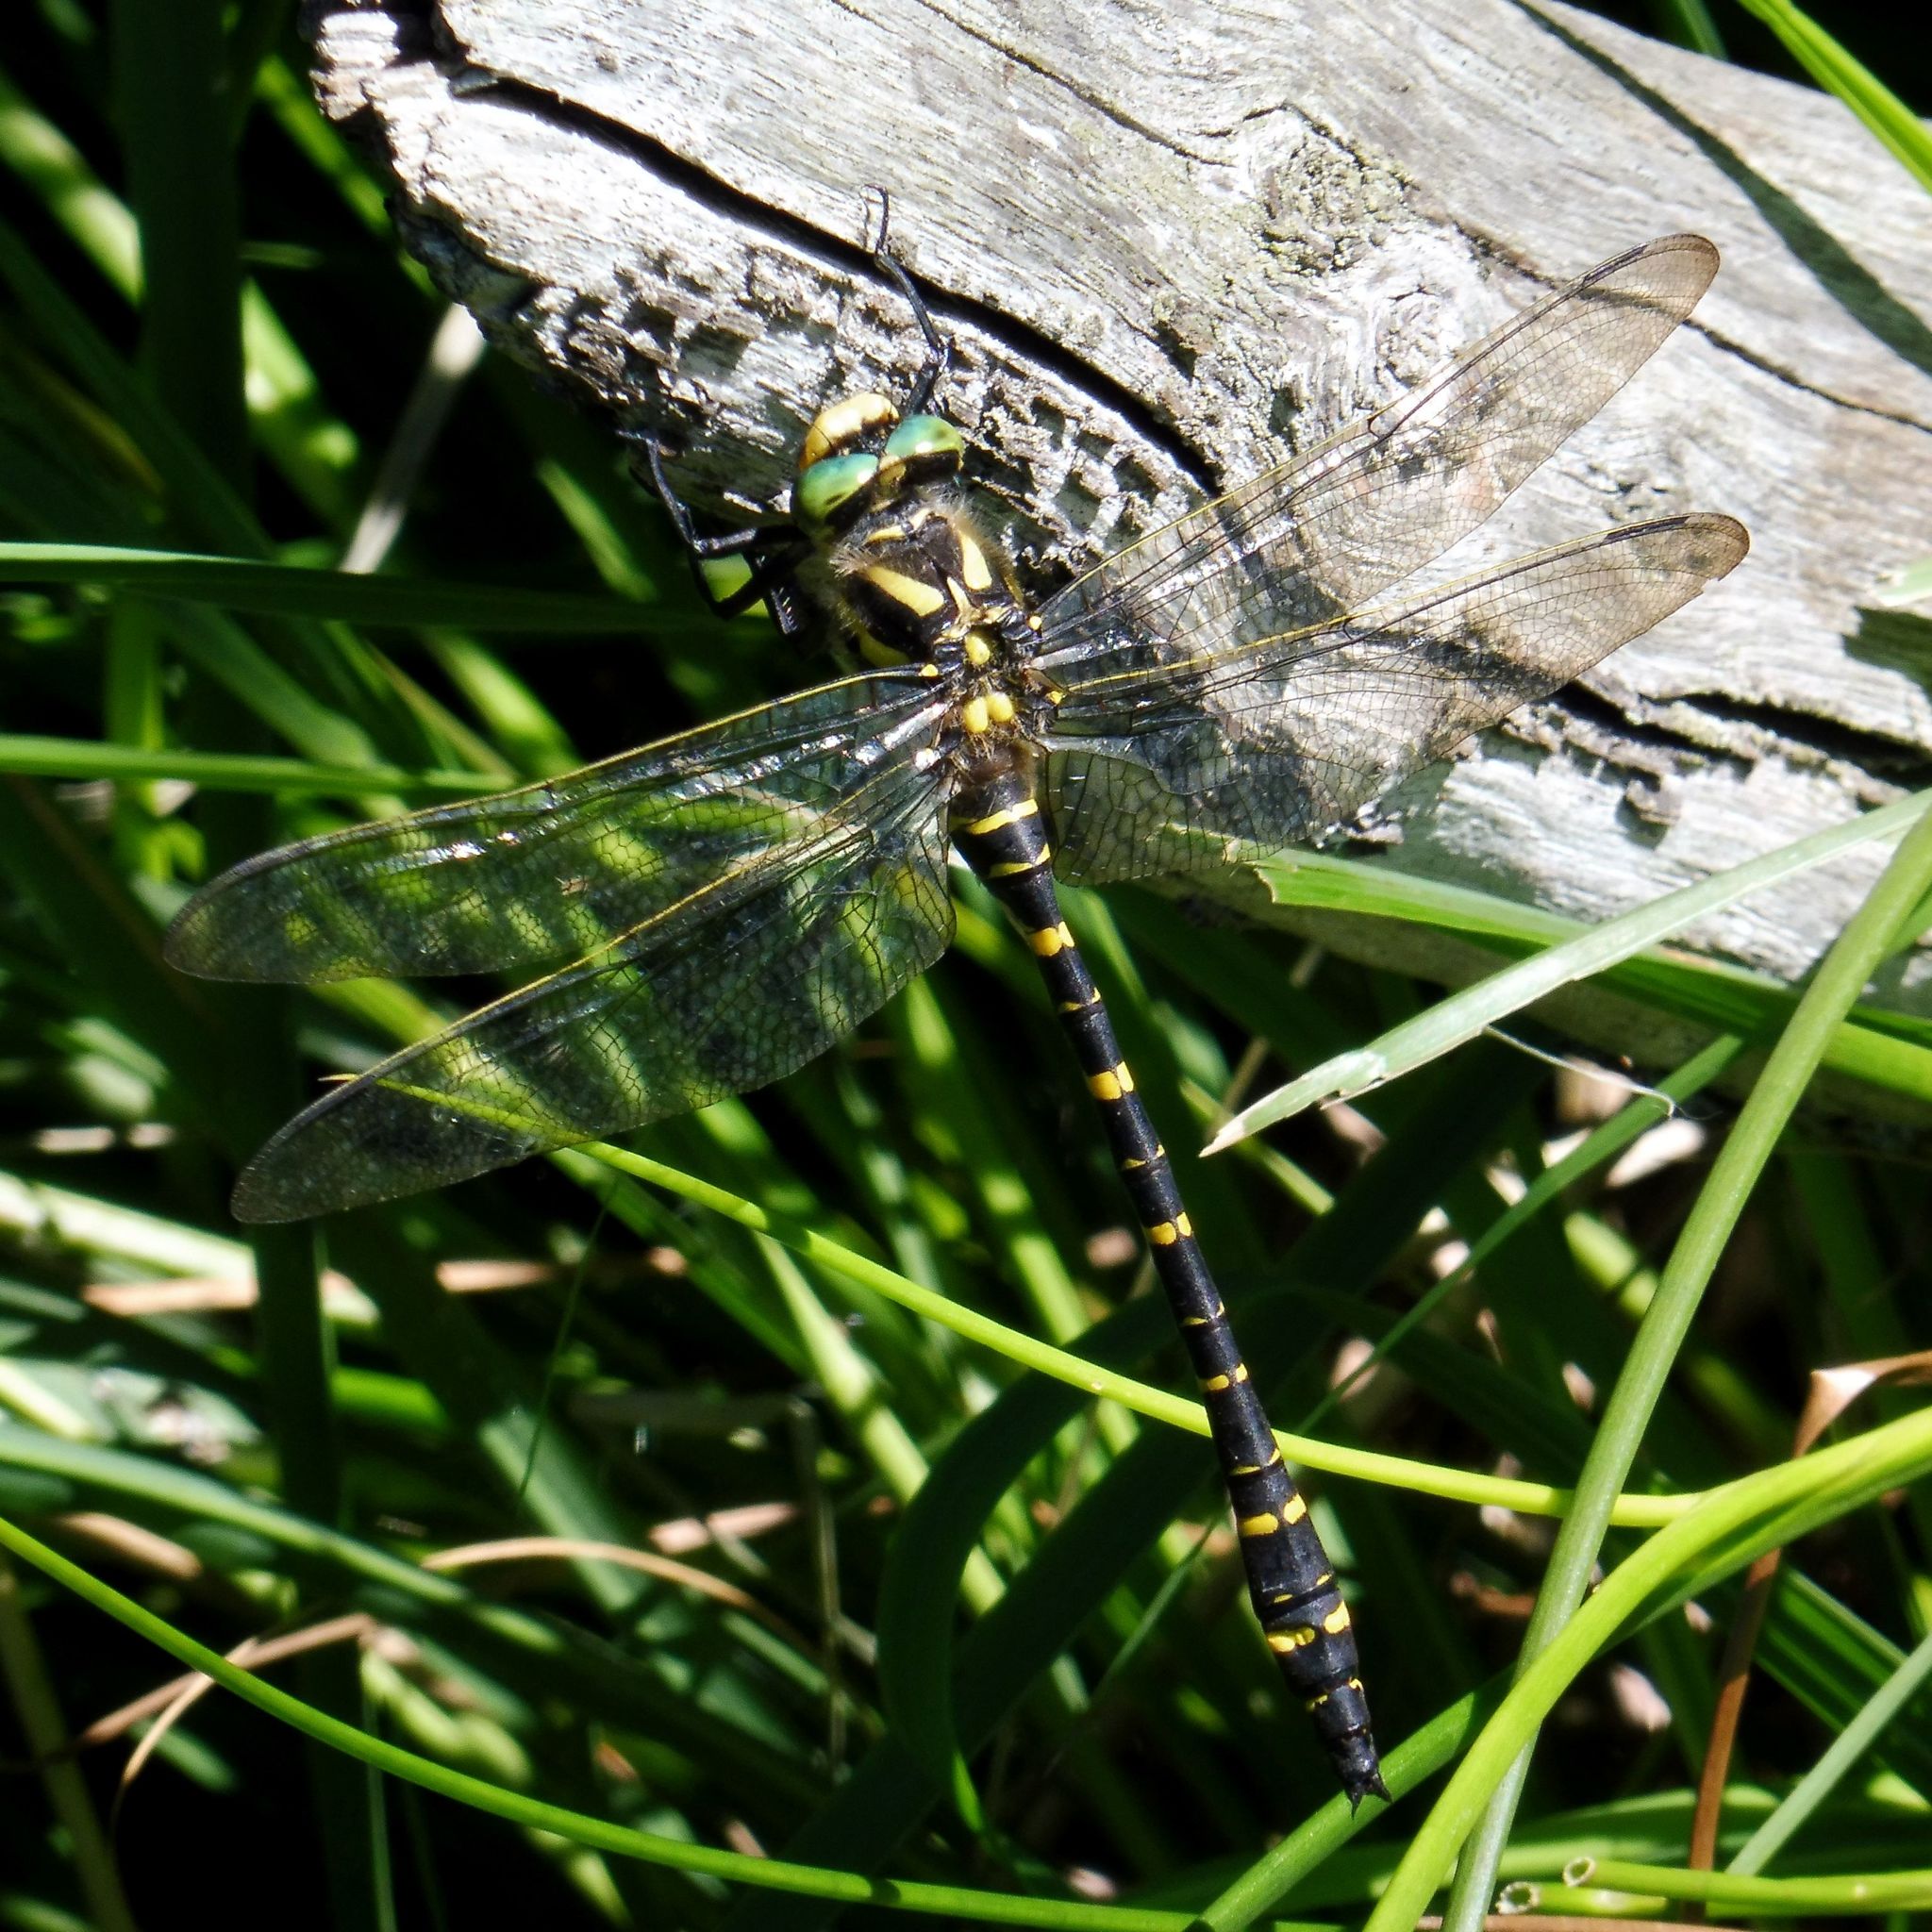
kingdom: Animalia
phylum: Arthropoda
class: Insecta
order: Odonata
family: Cordulegastridae
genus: Cordulegaster
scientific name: Cordulegaster boltonii
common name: Golden-ringed dragonfly
